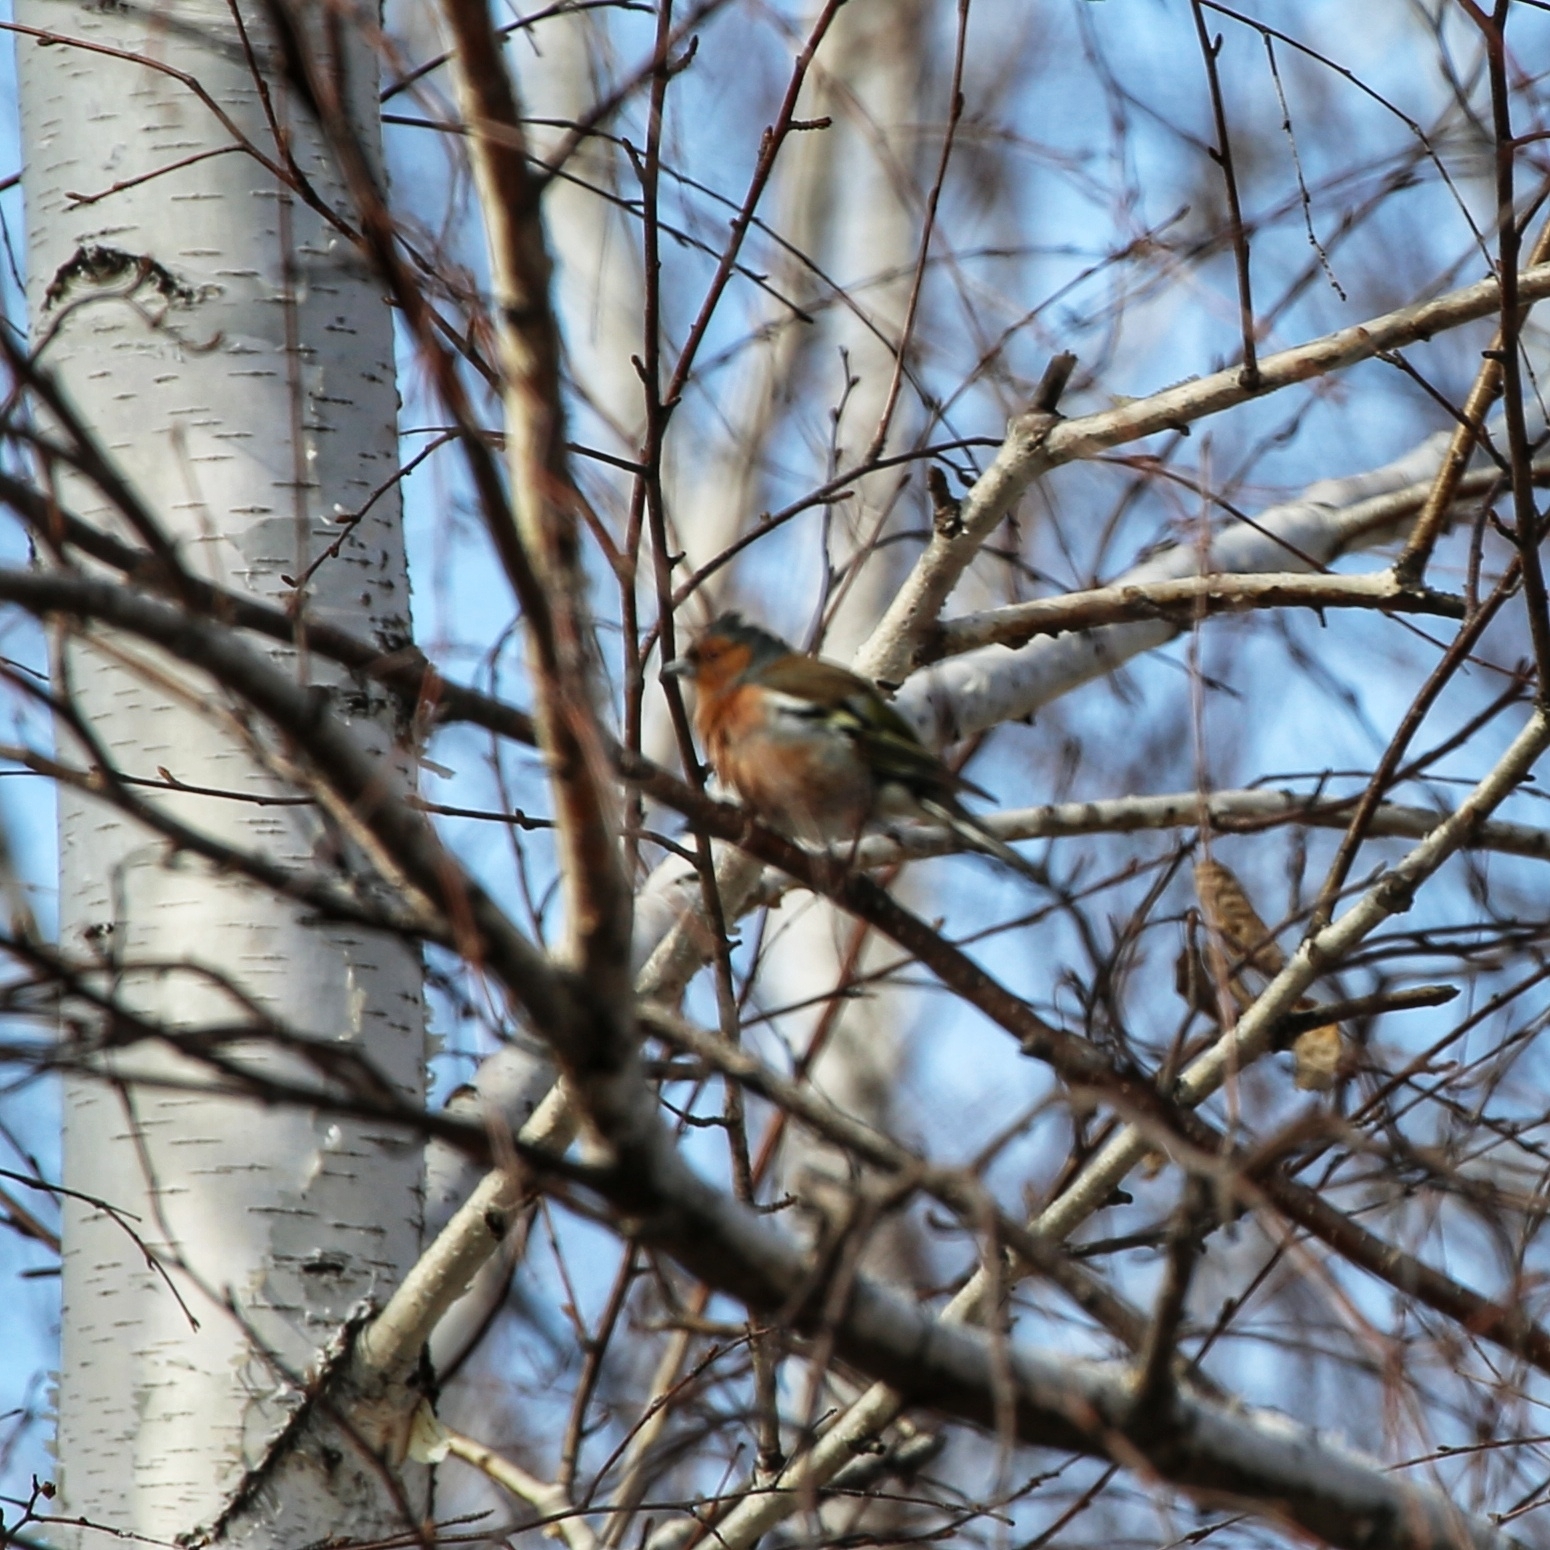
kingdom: Animalia
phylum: Chordata
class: Aves
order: Passeriformes
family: Fringillidae
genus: Fringilla
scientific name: Fringilla coelebs
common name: Common chaffinch
